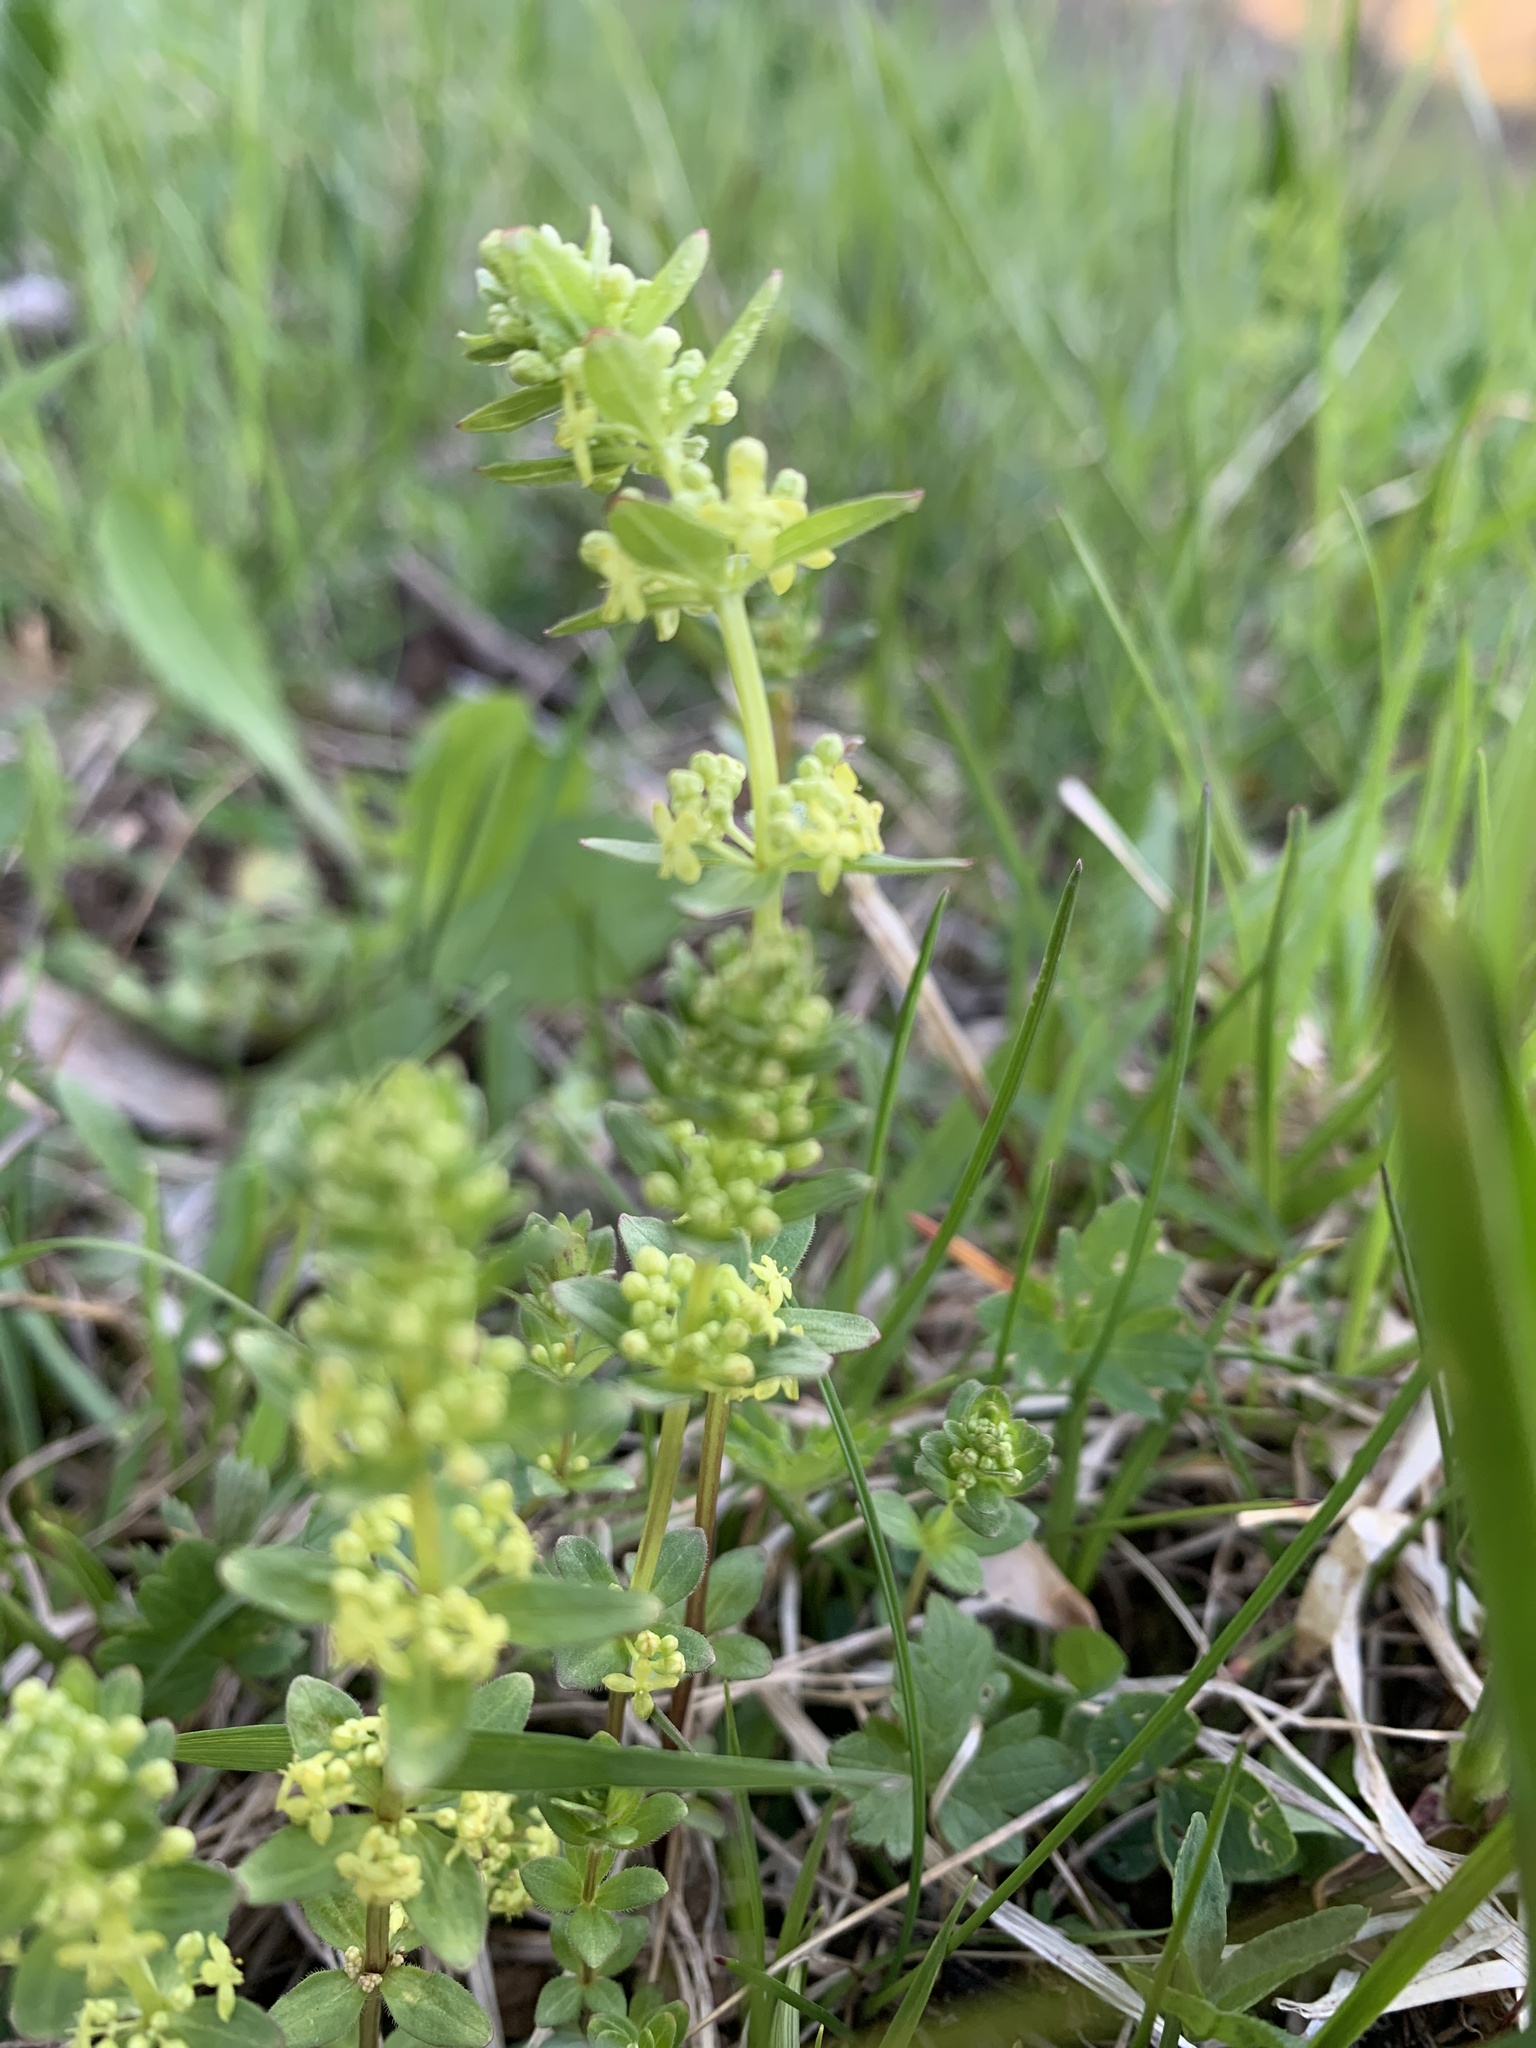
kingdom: Plantae
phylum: Tracheophyta
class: Magnoliopsida
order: Gentianales
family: Rubiaceae
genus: Cruciata
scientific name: Cruciata glabra
